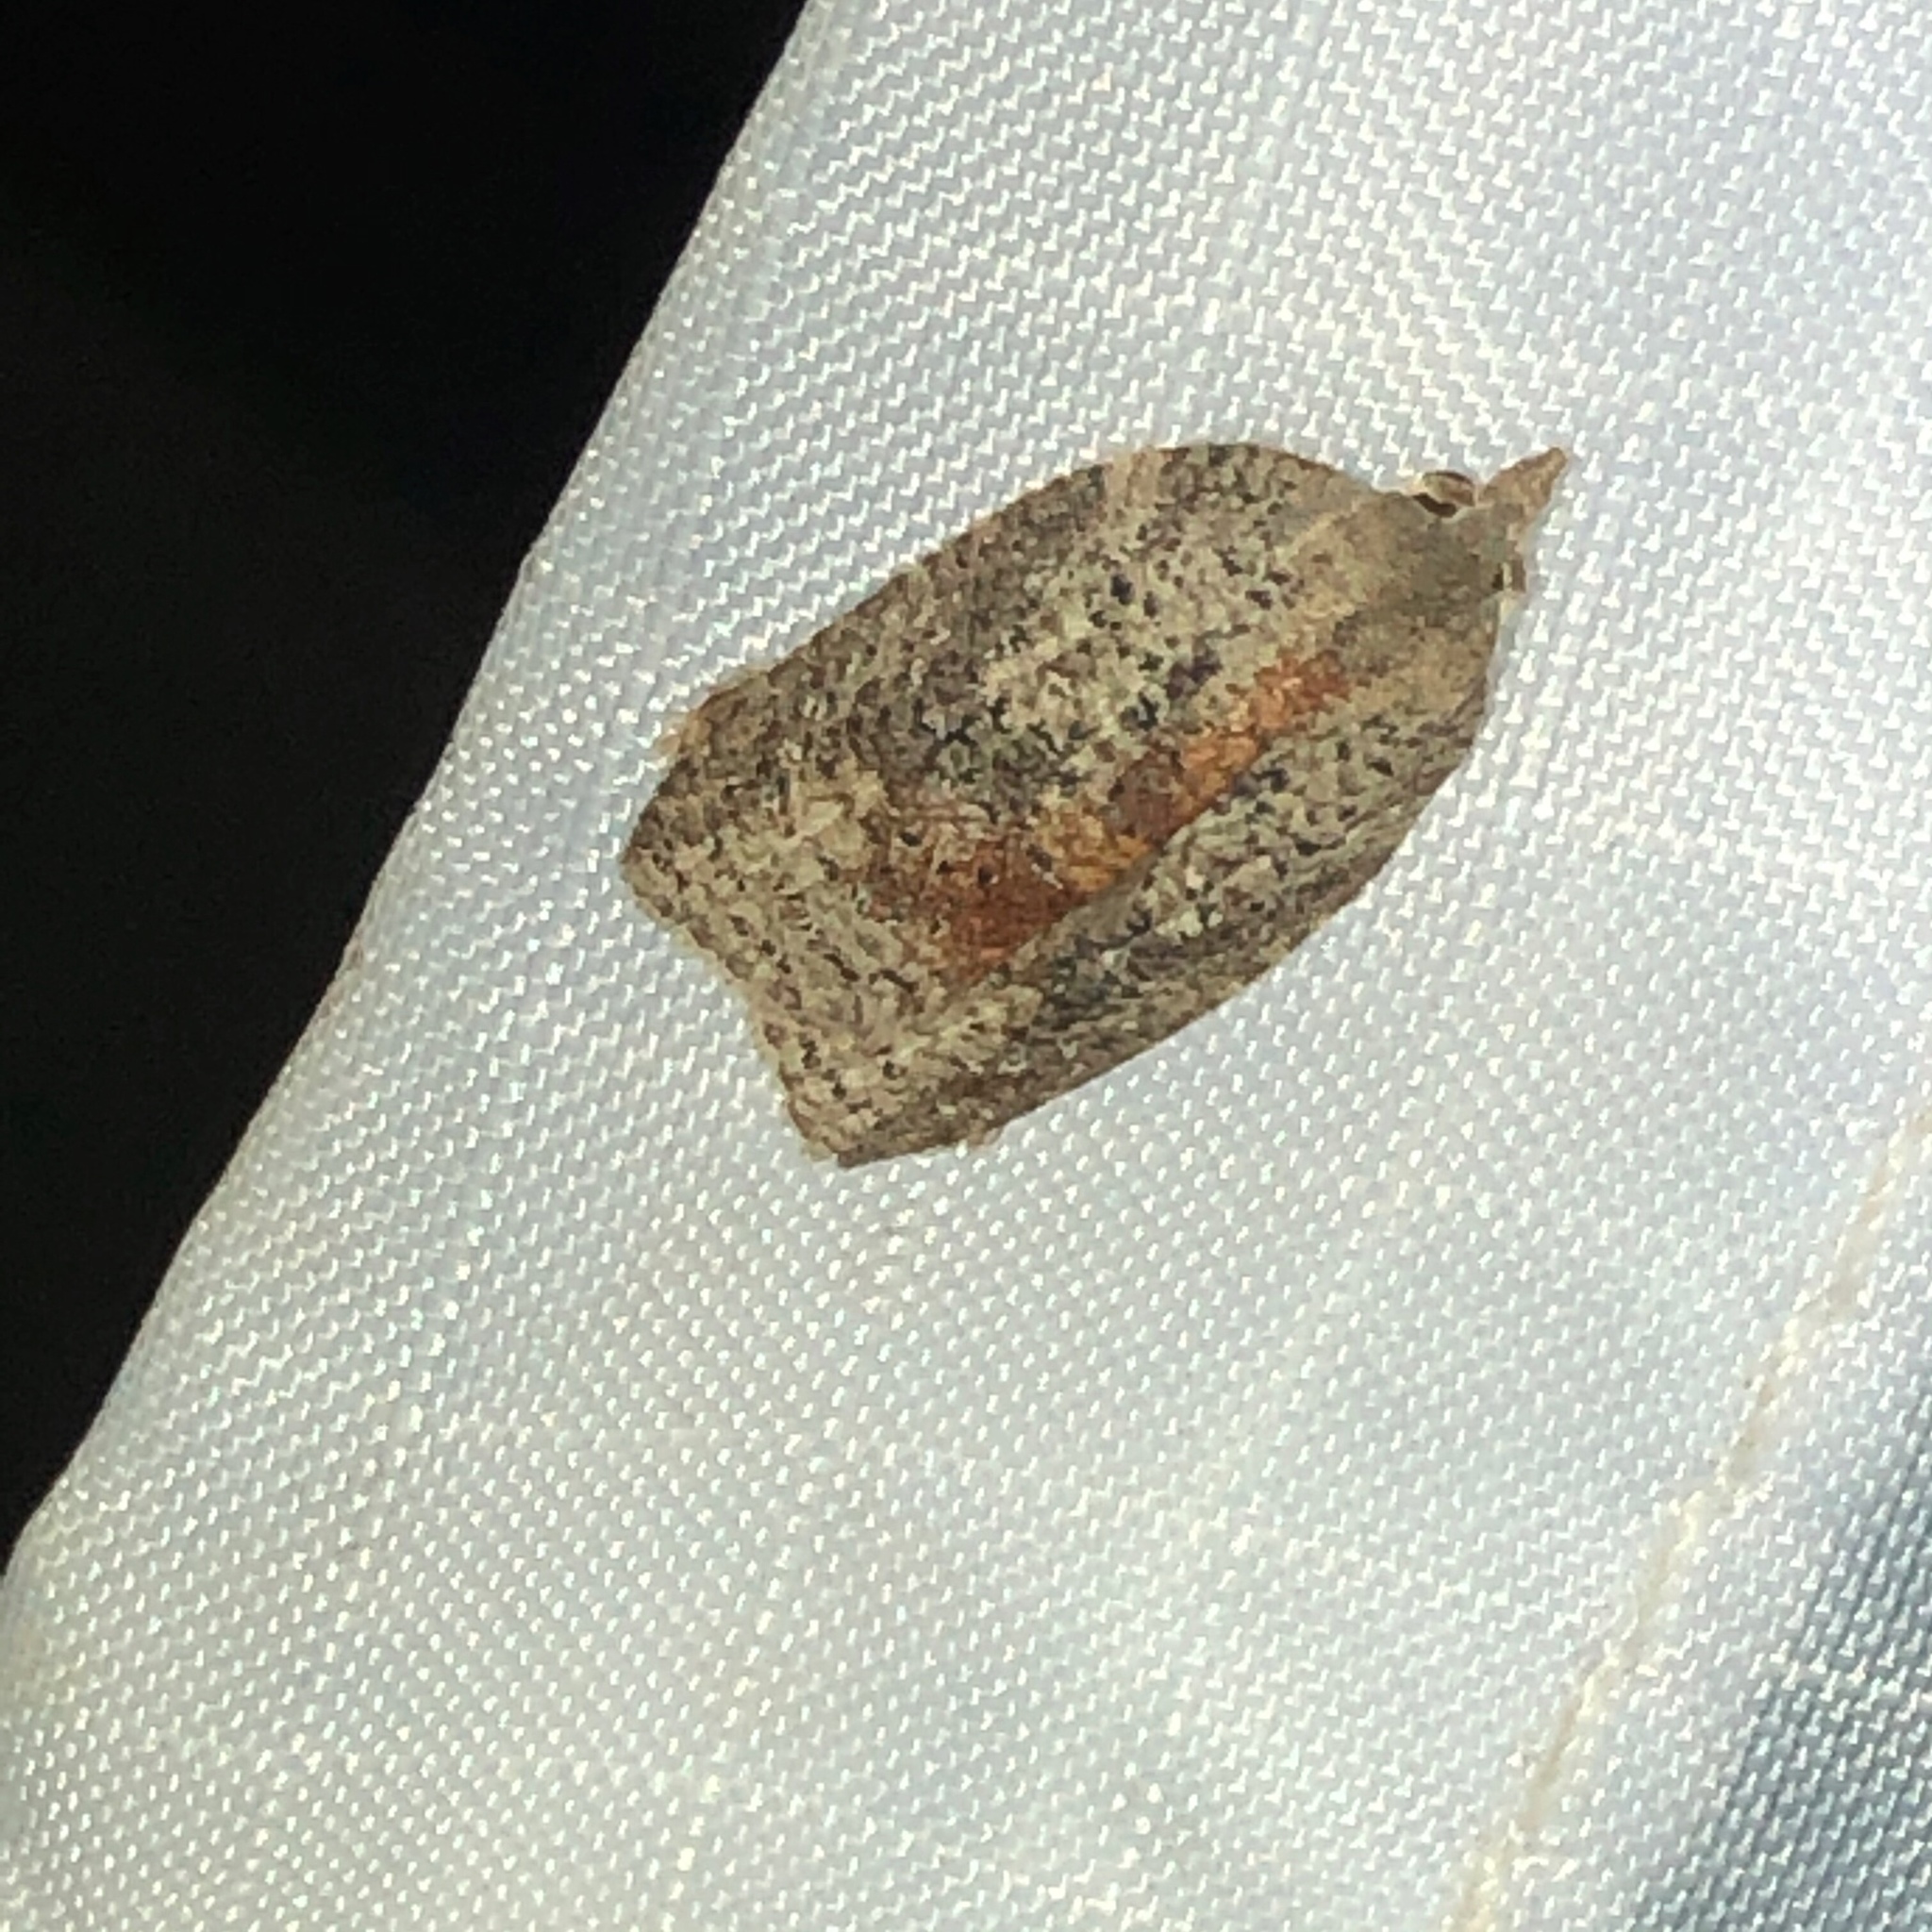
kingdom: Animalia
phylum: Arthropoda
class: Insecta
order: Lepidoptera
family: Tortricidae
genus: Amorbia
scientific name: Amorbia humerosana
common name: White-lined leafroller moth
